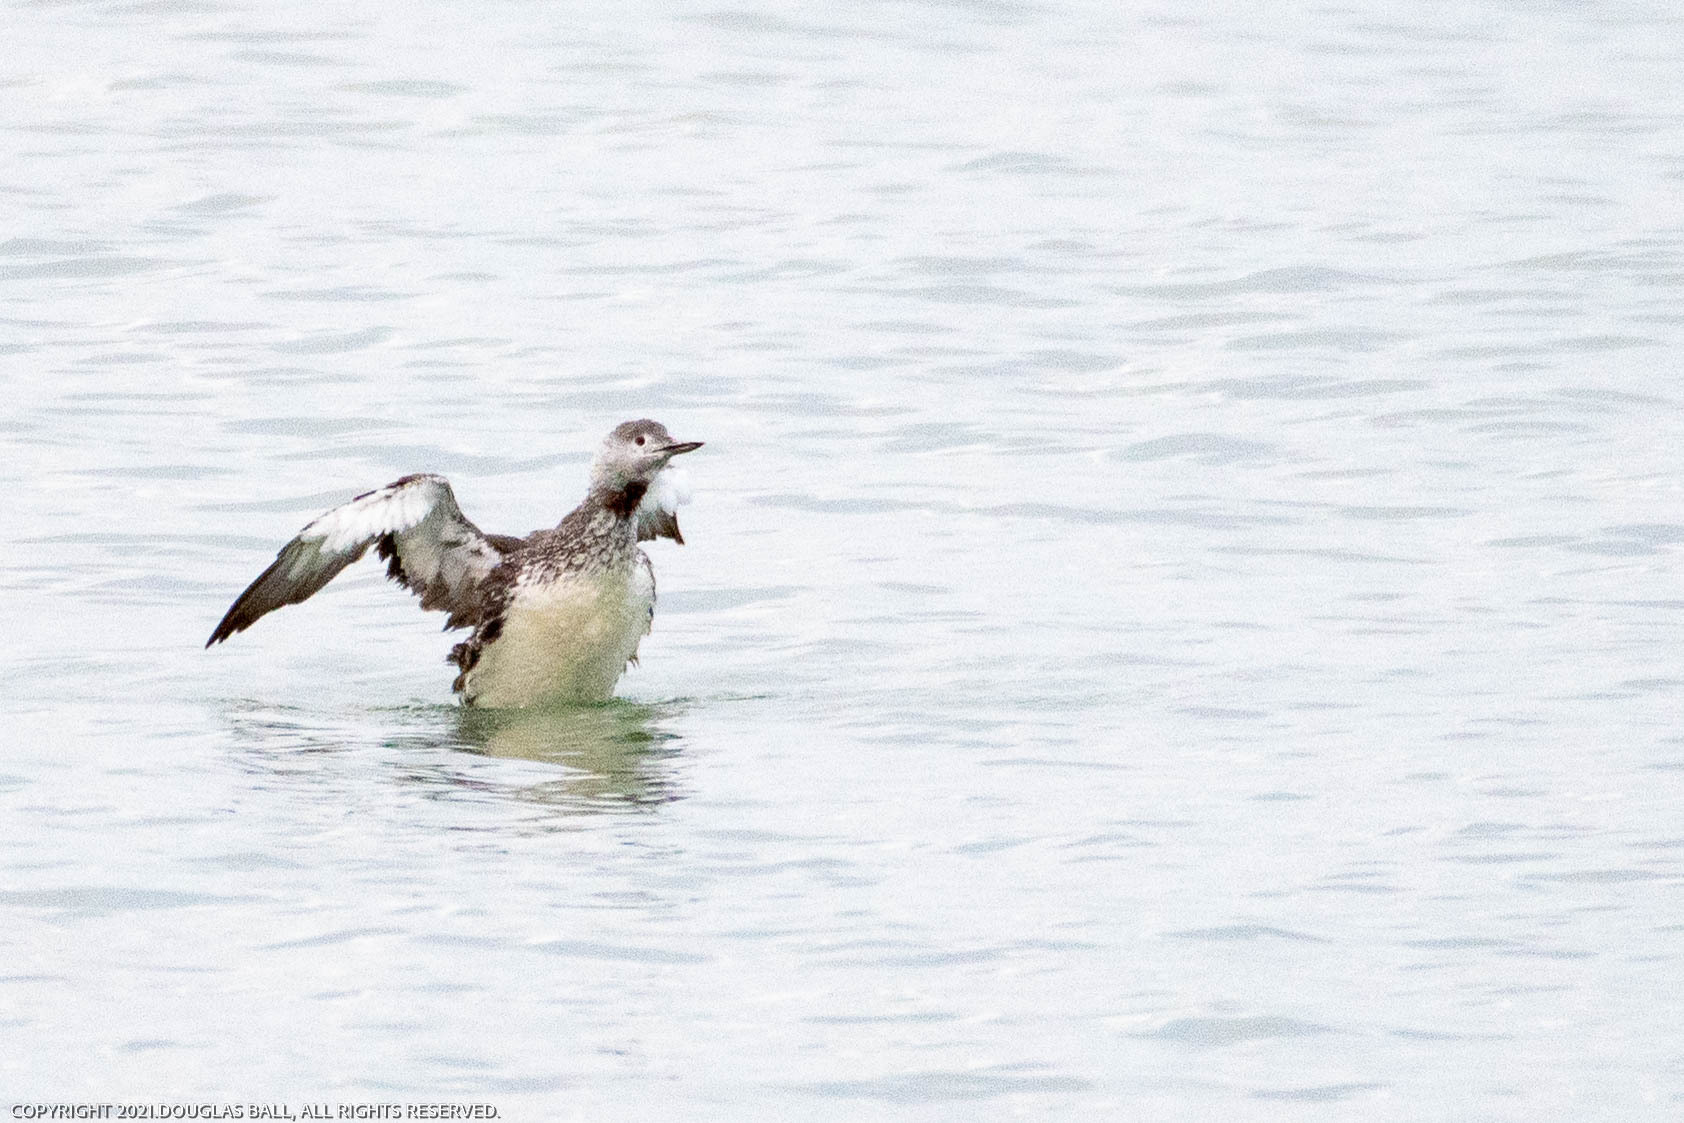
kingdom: Animalia
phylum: Chordata
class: Aves
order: Gaviiformes
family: Gaviidae
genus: Gavia
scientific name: Gavia stellata
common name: Red-throated loon
